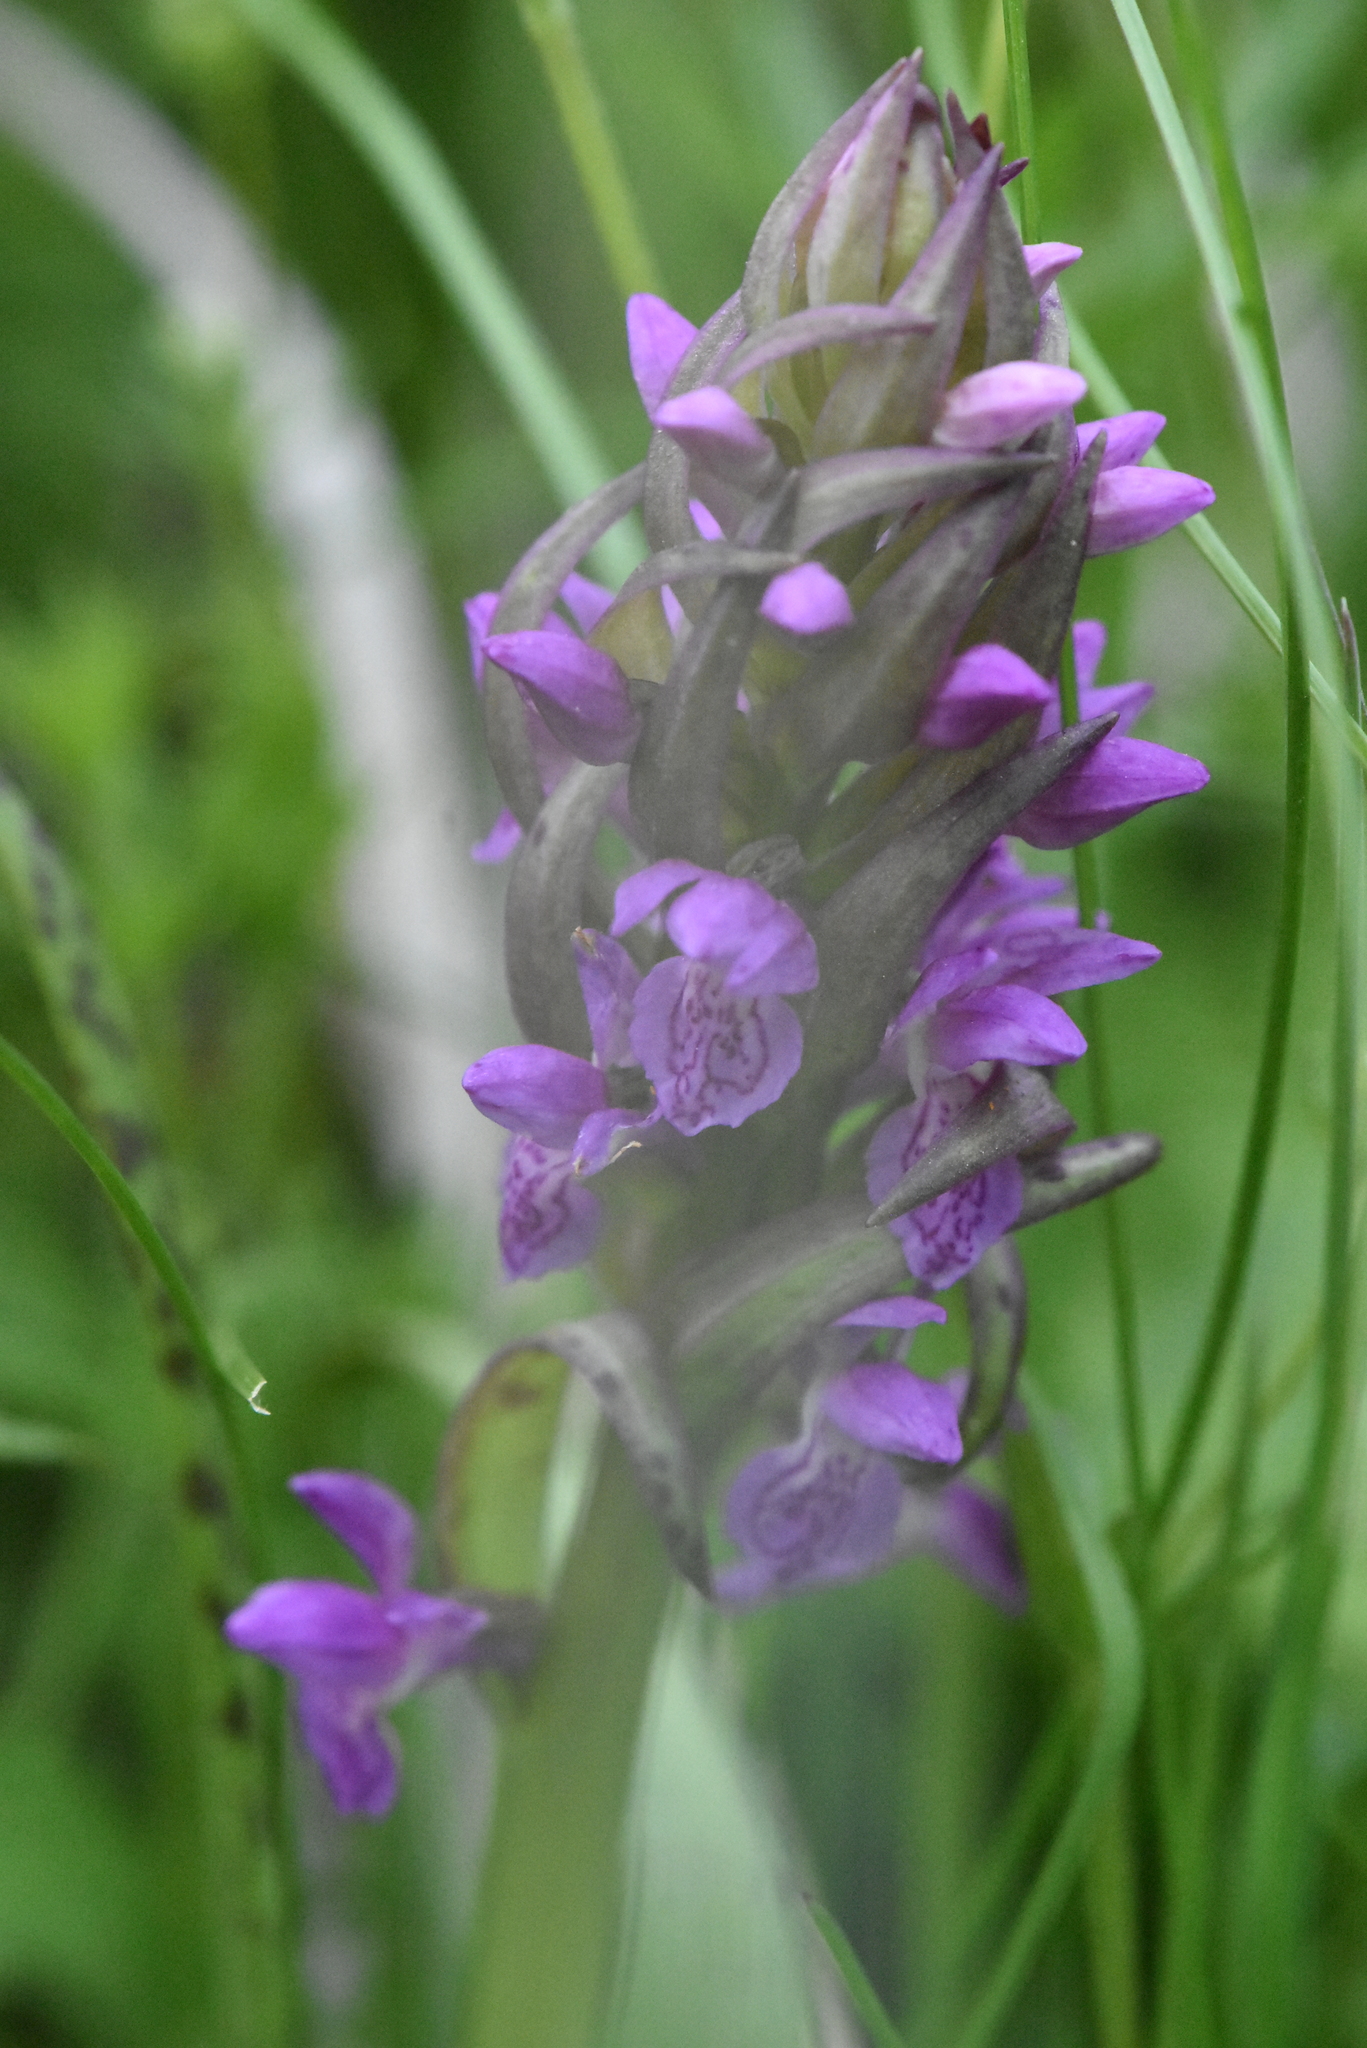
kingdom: Plantae
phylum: Tracheophyta
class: Liliopsida
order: Asparagales
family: Orchidaceae
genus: Dactylorhiza
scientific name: Dactylorhiza incarnata
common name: Early marsh-orchid
